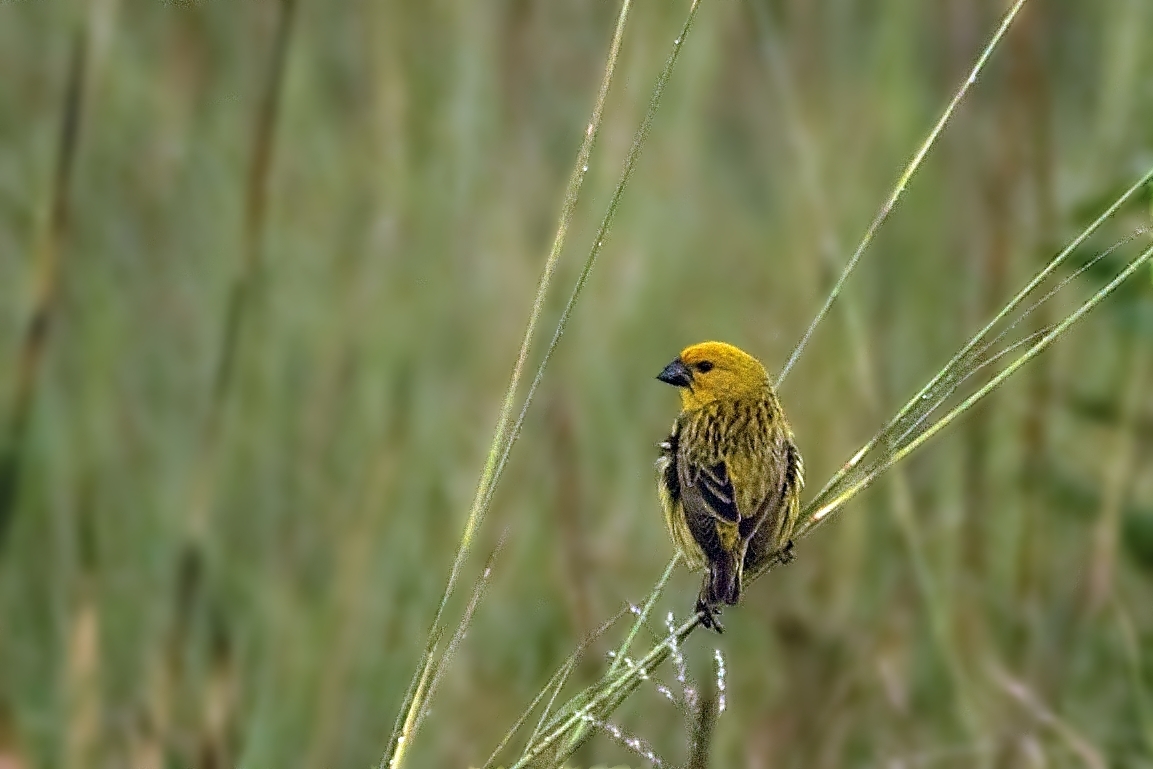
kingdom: Animalia
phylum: Chordata
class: Aves
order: Passeriformes
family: Viduidae
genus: Anomalospiza
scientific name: Anomalospiza imberbis
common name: Cuckoo weaver
